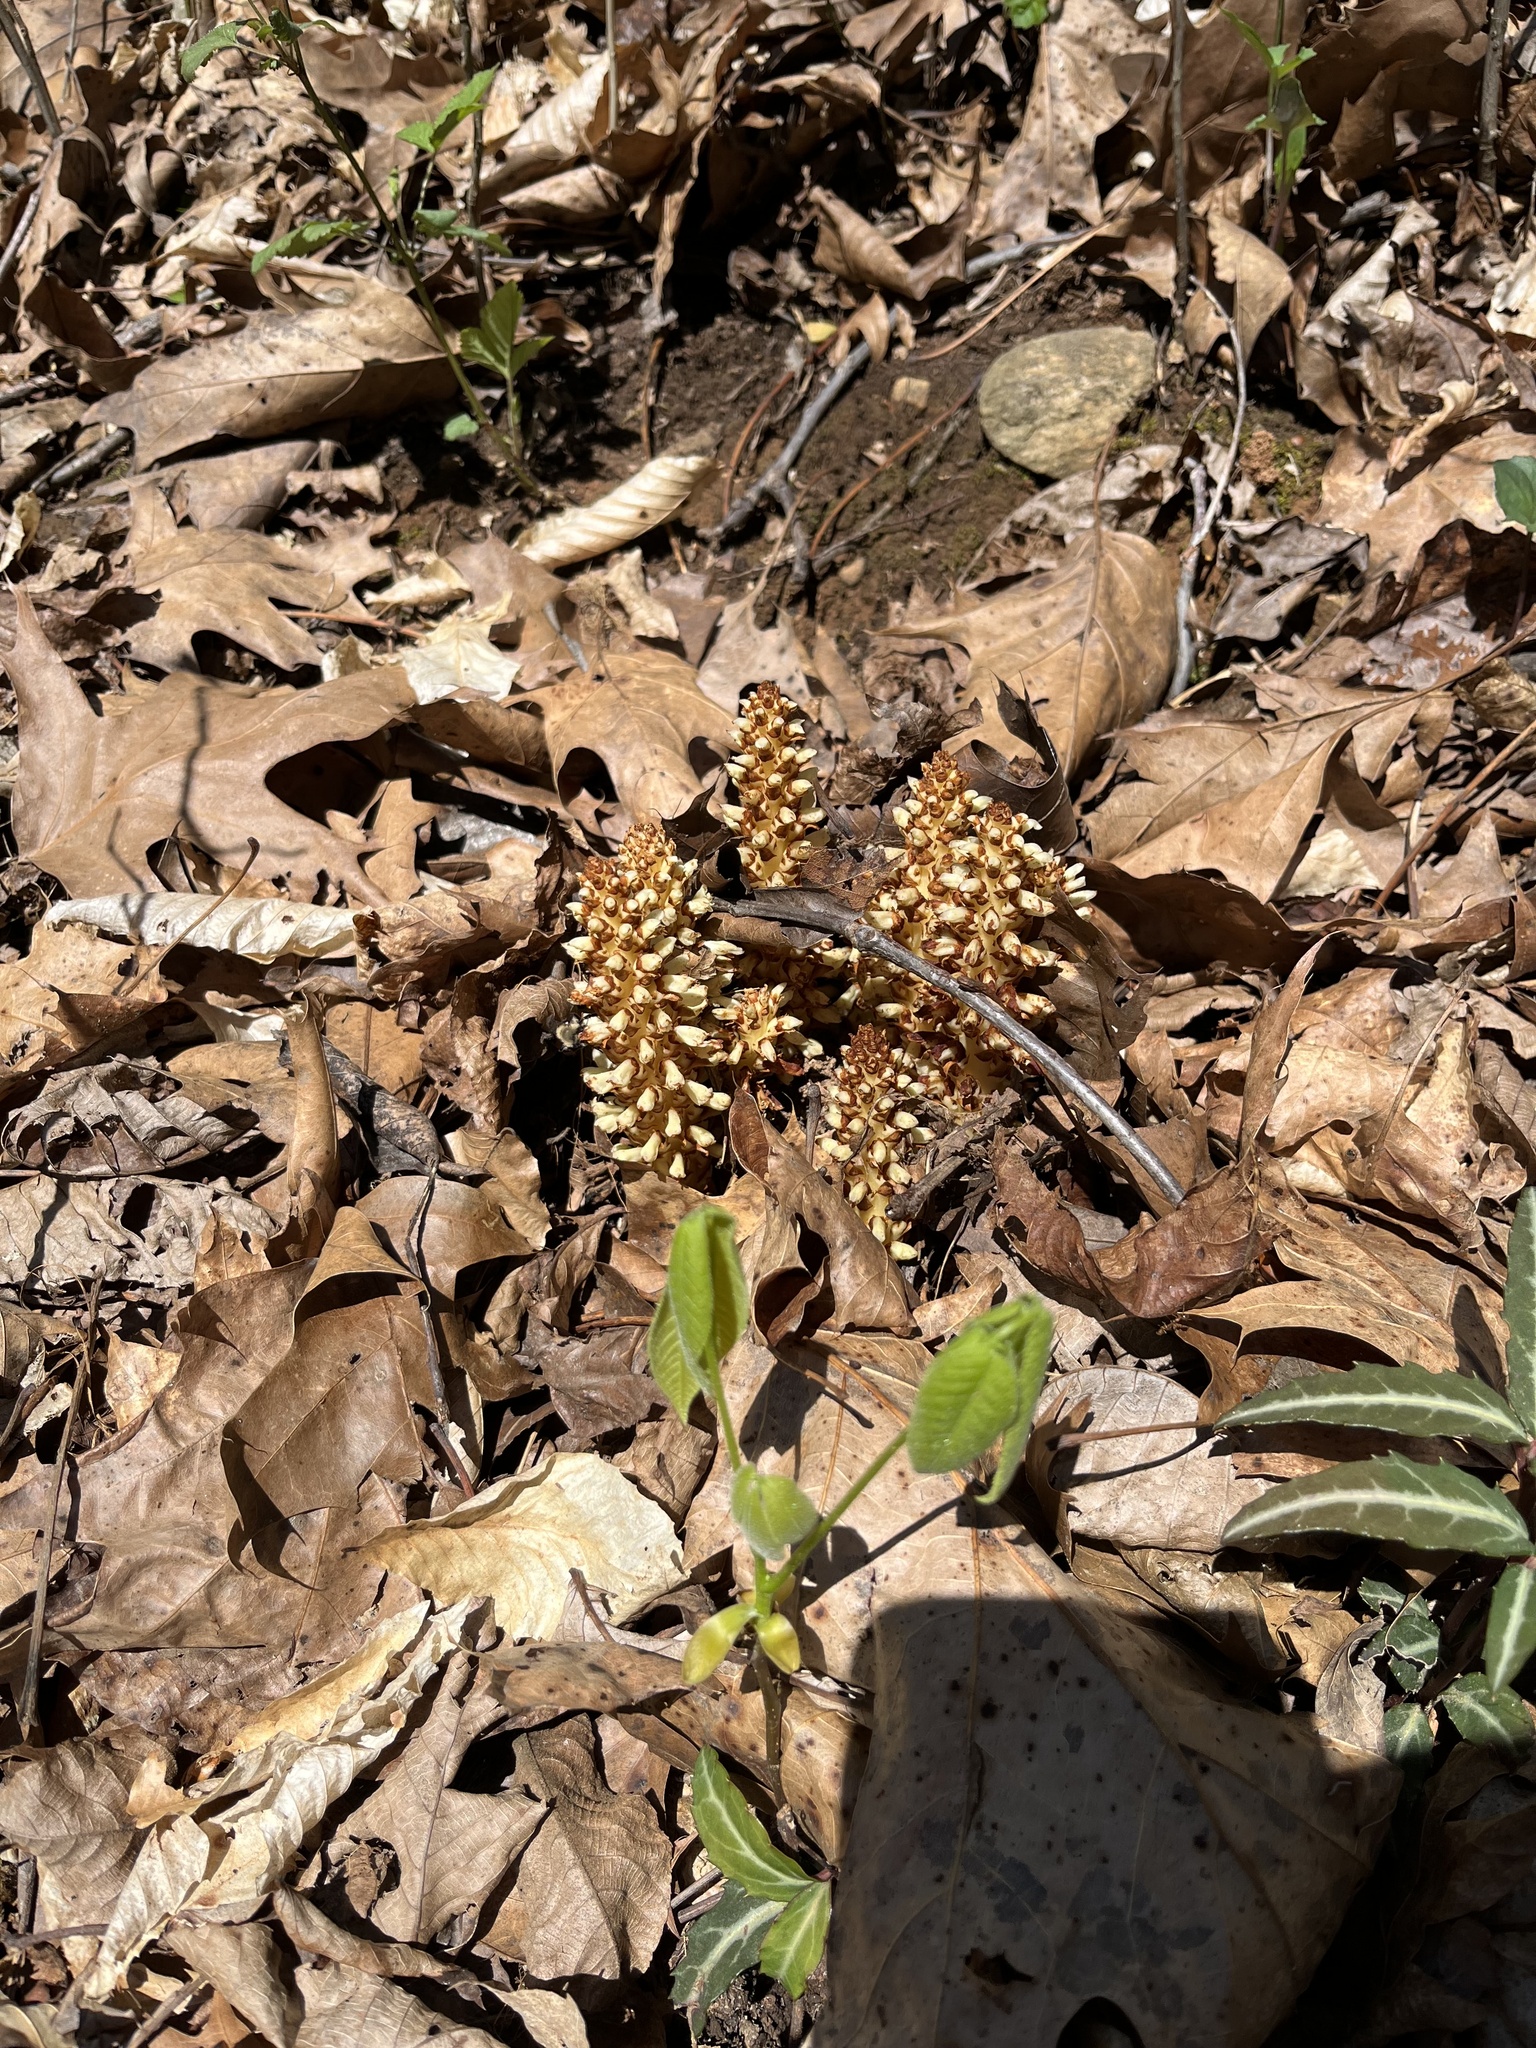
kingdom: Plantae
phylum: Tracheophyta
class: Magnoliopsida
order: Lamiales
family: Orobanchaceae
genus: Conopholis
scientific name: Conopholis americana
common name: American cancer-root
